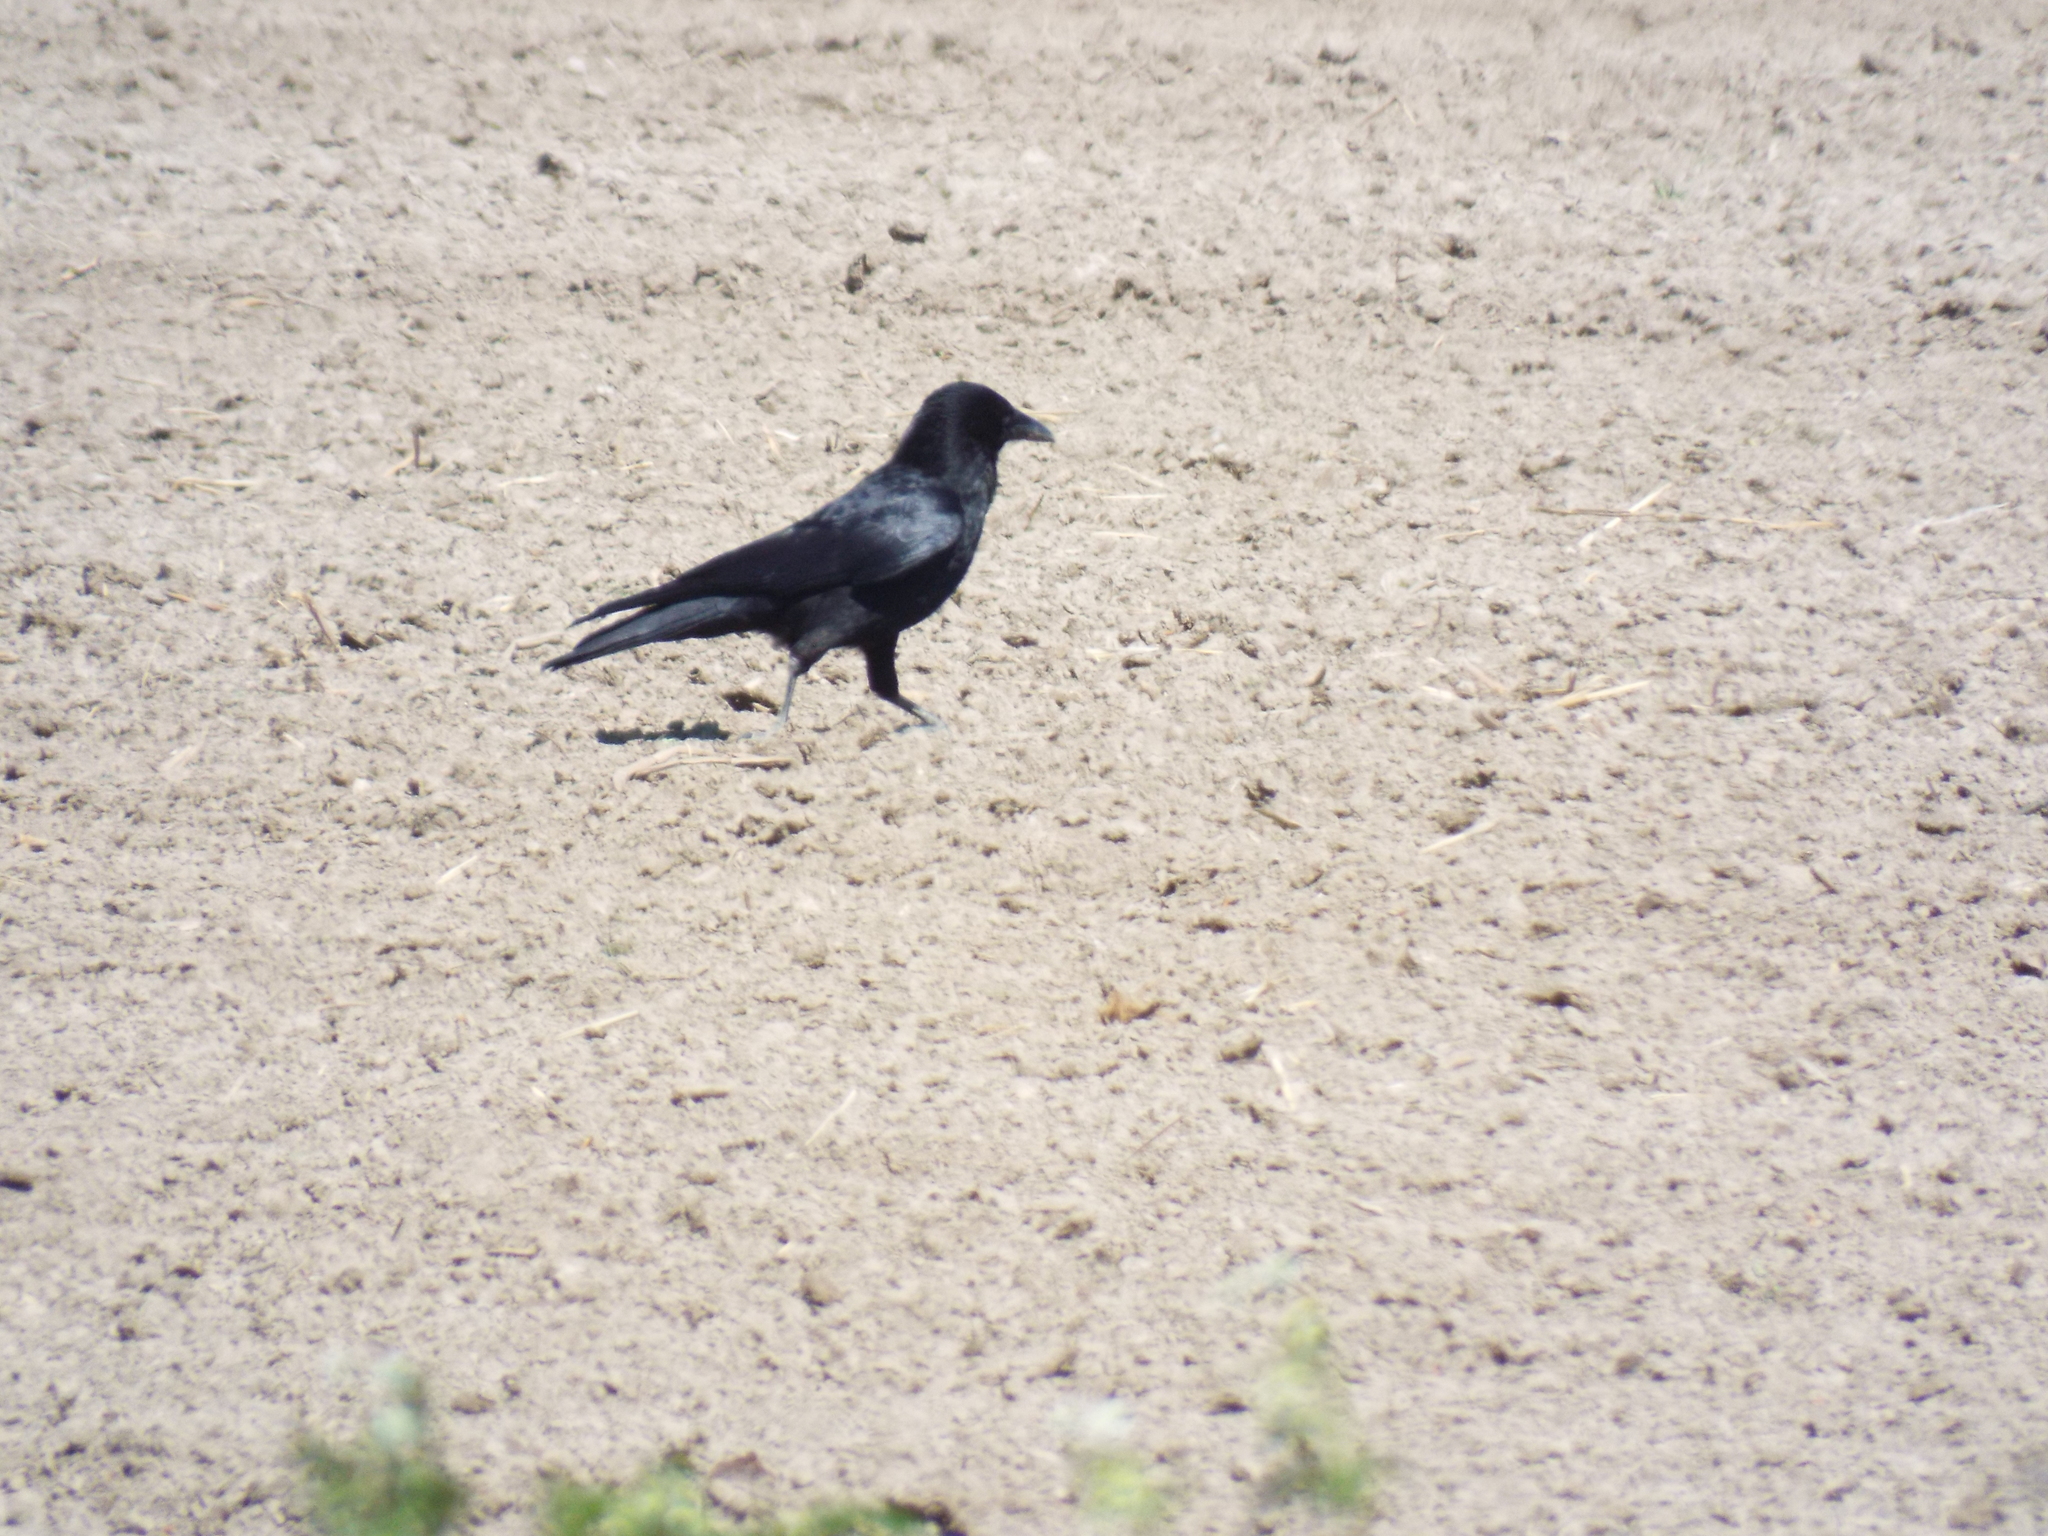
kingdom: Animalia
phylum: Chordata
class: Aves
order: Passeriformes
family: Corvidae
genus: Corvus
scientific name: Corvus corone
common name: Carrion crow
